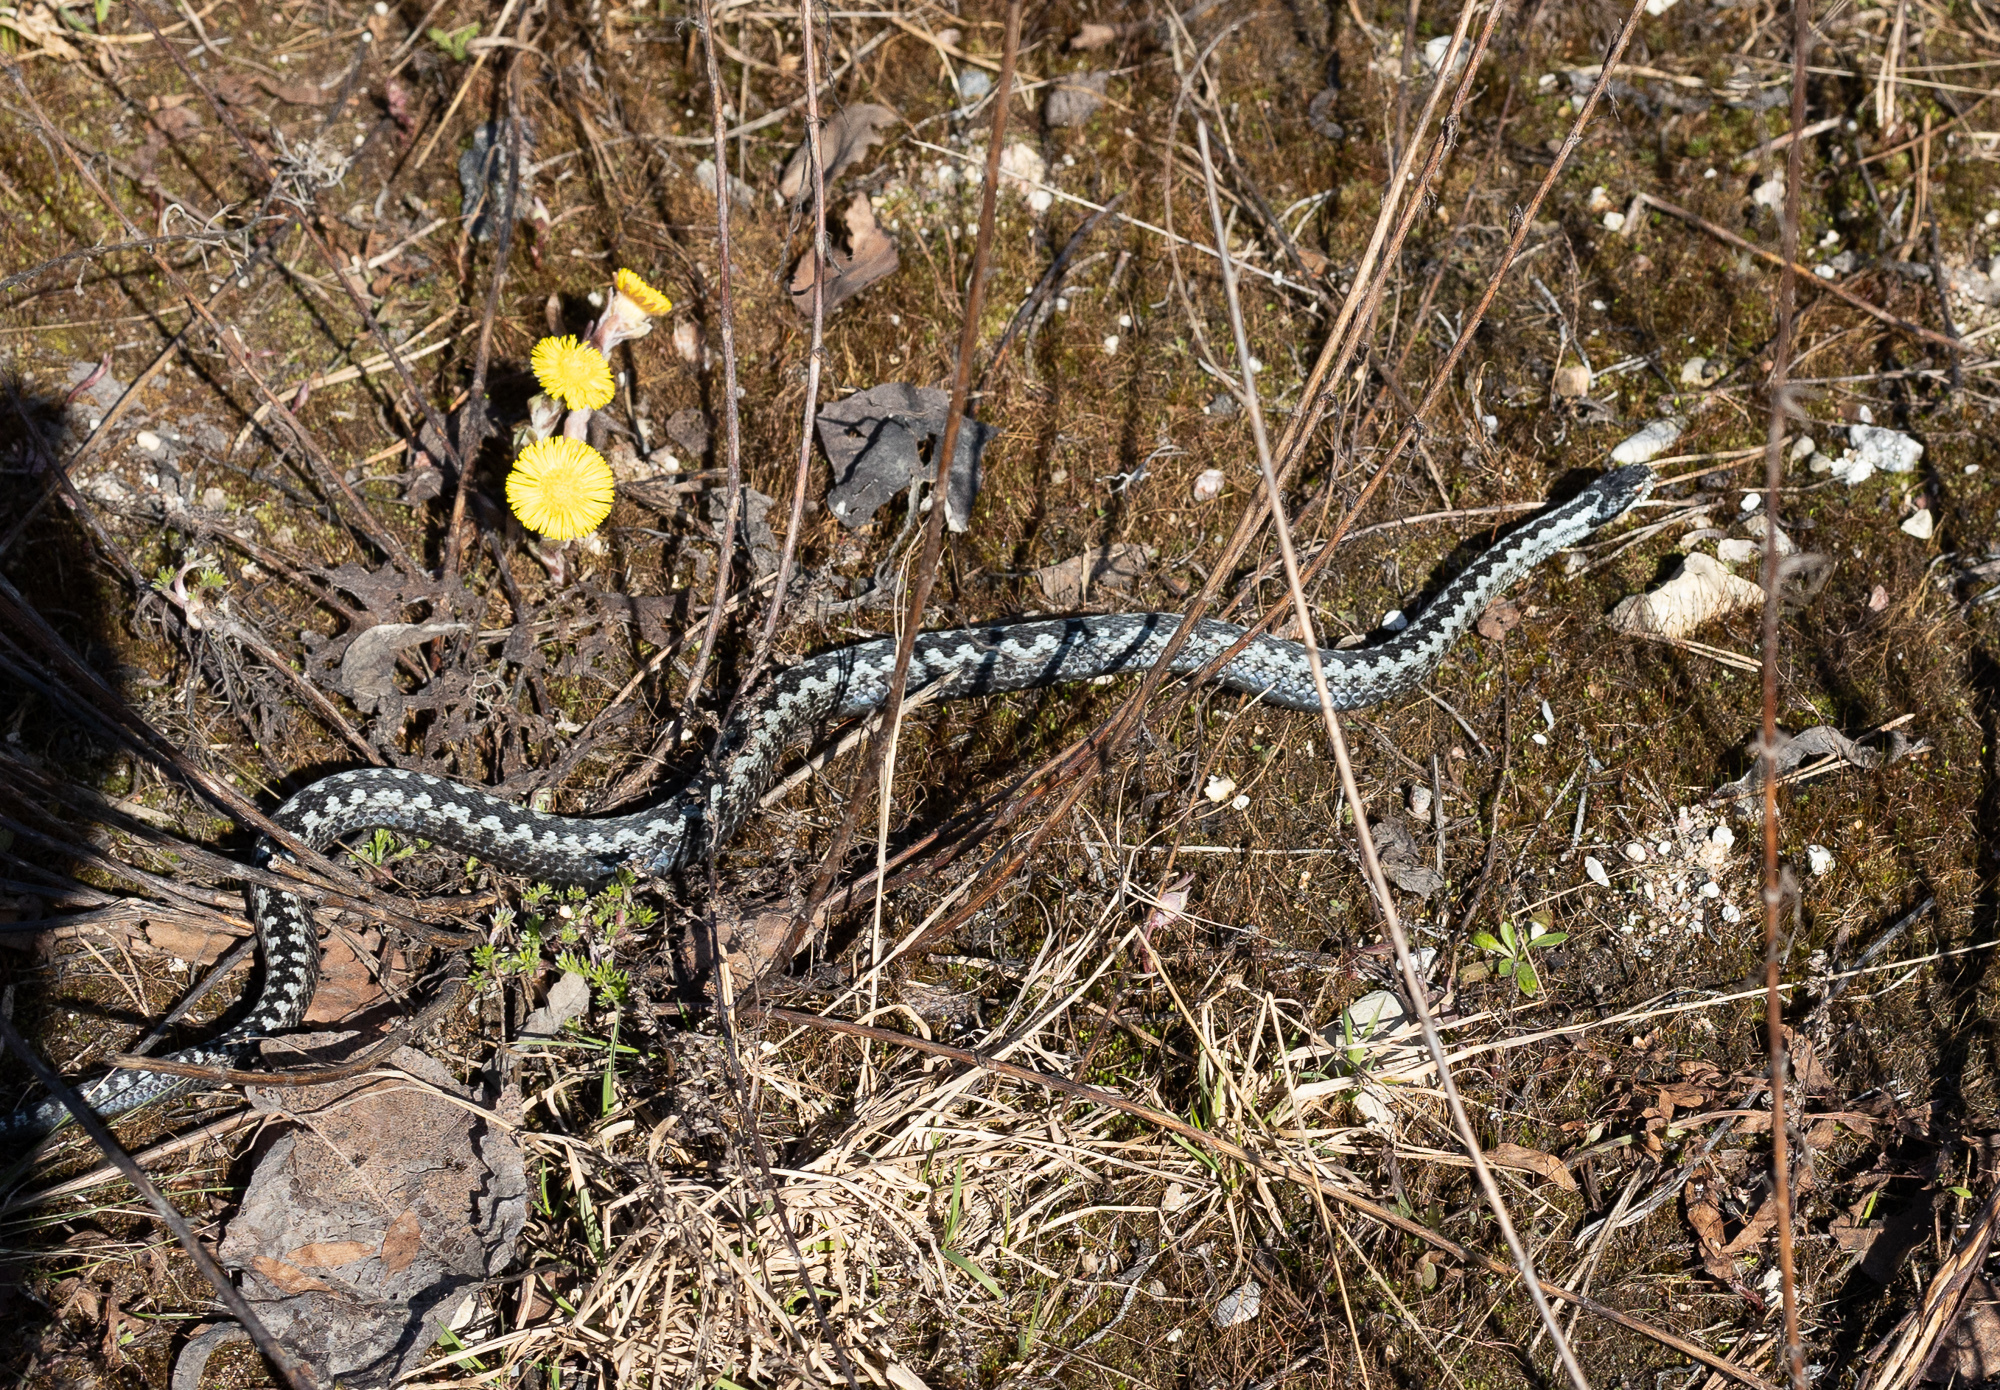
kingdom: Animalia
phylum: Chordata
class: Squamata
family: Viperidae
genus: Vipera
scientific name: Vipera berus
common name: Adder
